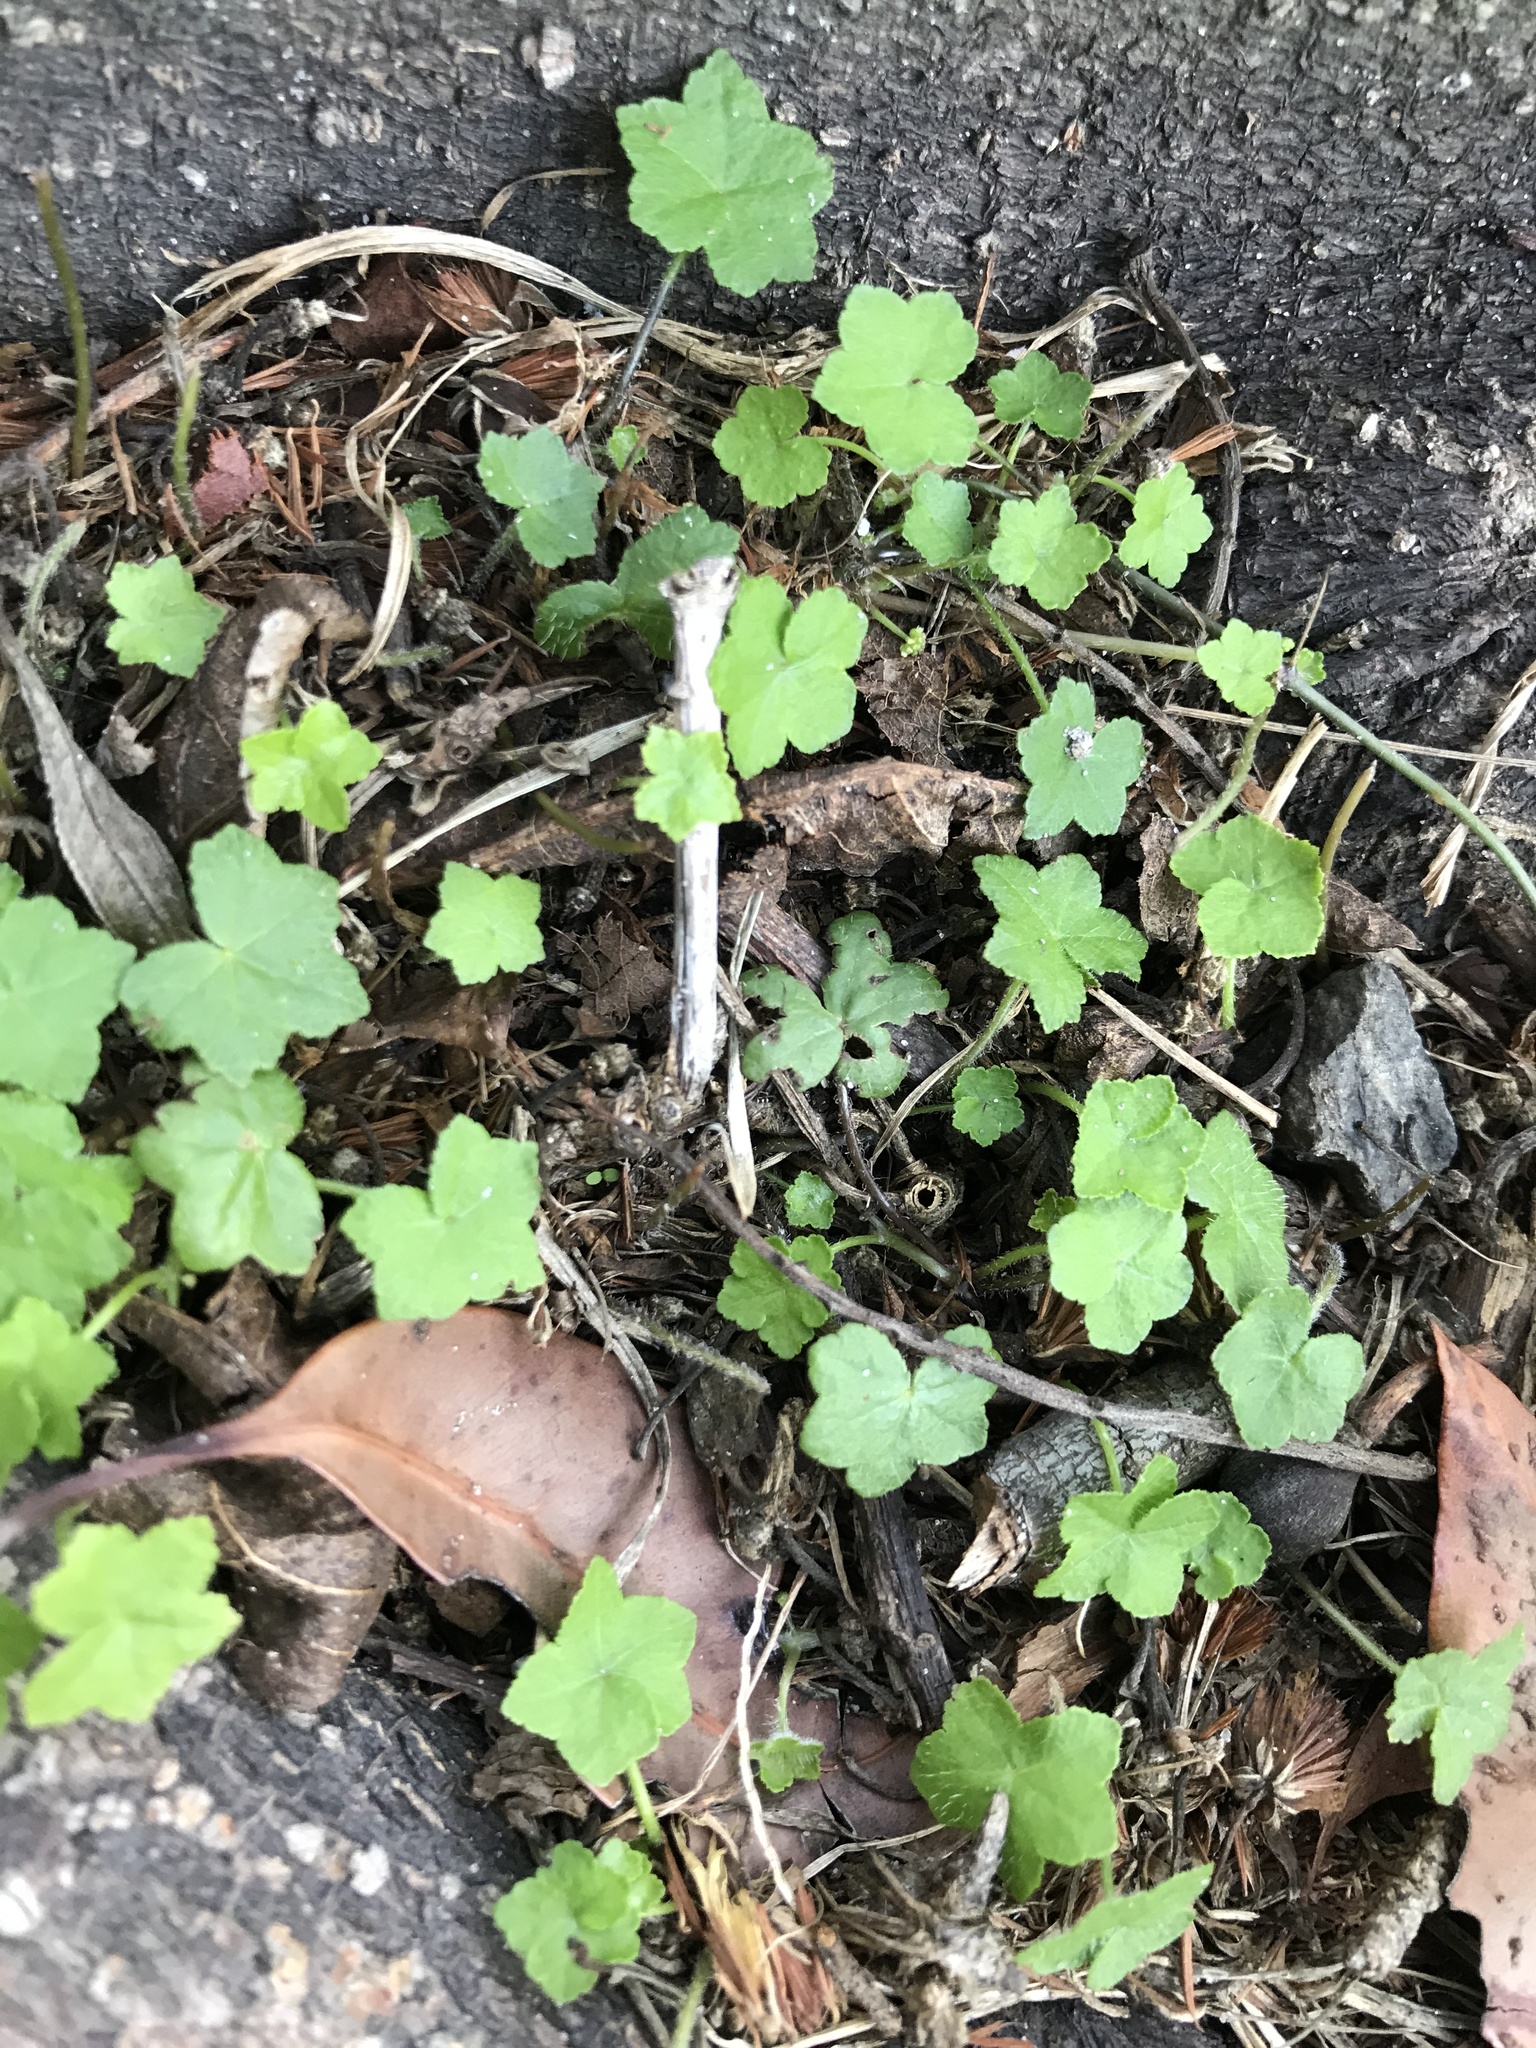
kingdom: Plantae
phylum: Tracheophyta
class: Magnoliopsida
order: Apiales
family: Araliaceae
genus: Hydrocotyle
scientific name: Hydrocotyle acutiloba
